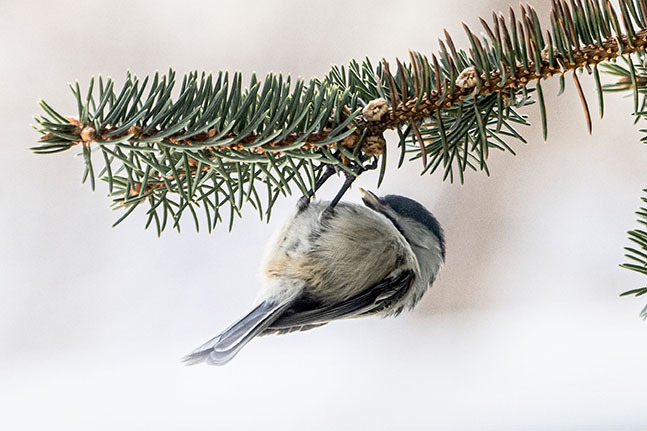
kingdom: Animalia
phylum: Chordata
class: Aves
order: Passeriformes
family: Paridae
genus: Poecile
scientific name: Poecile atricapillus
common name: Black-capped chickadee
